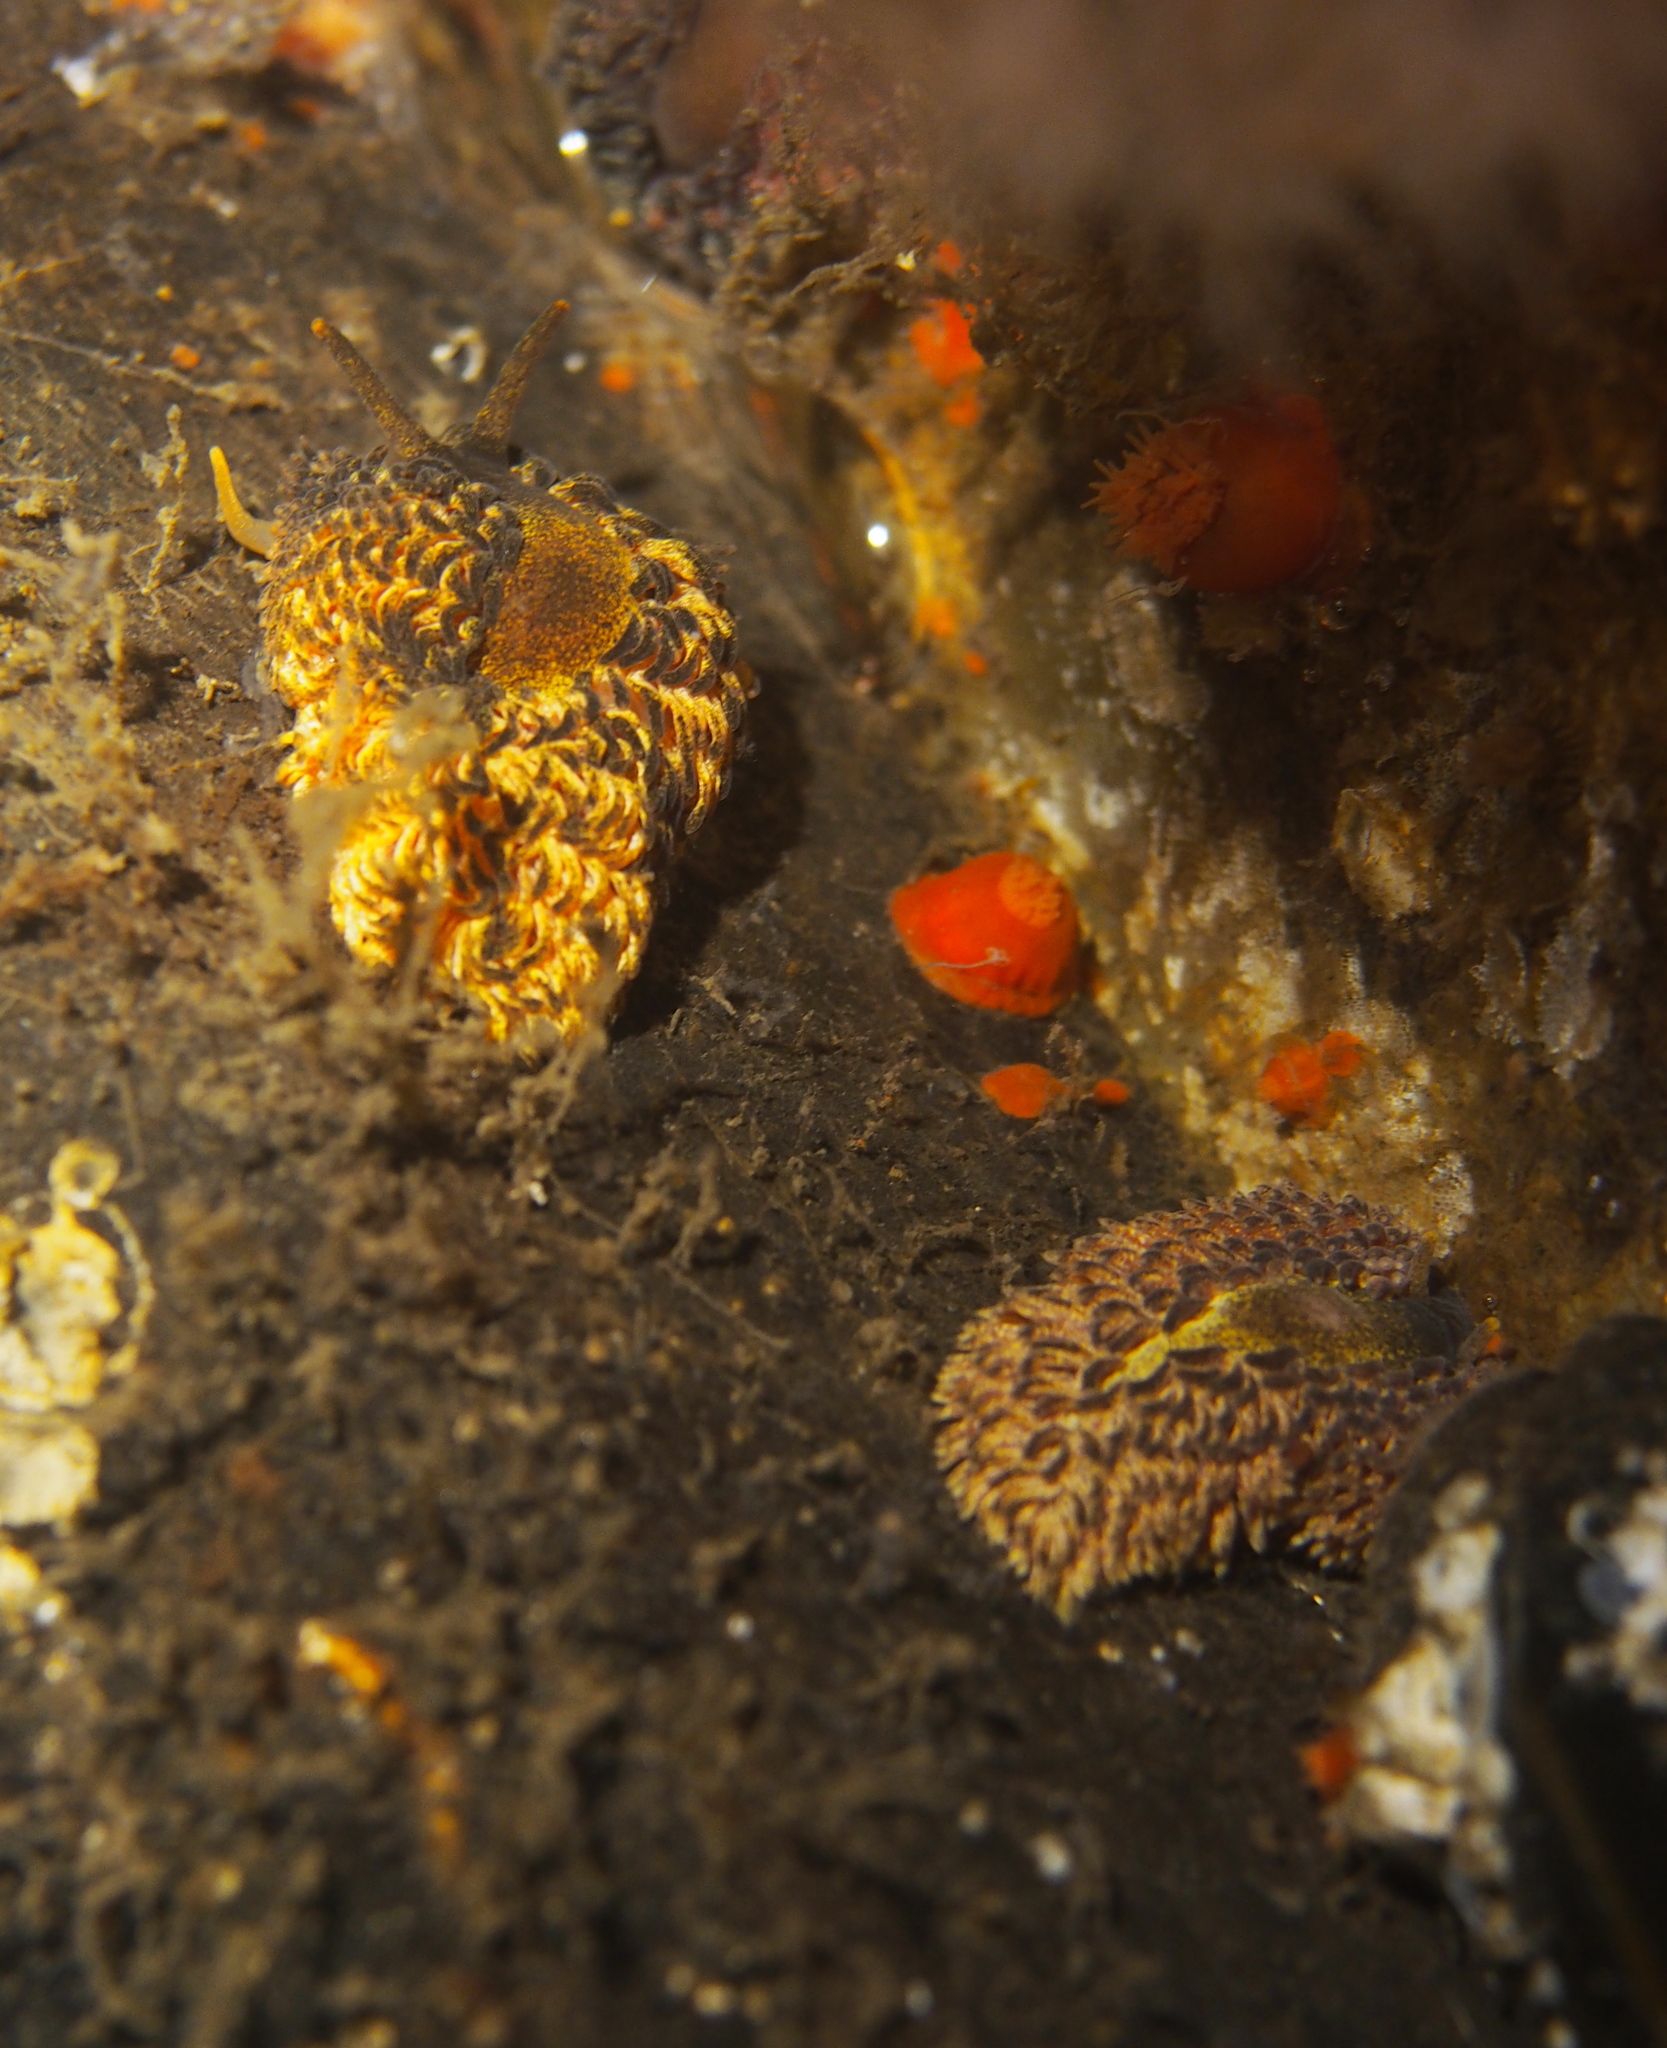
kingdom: Animalia
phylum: Mollusca
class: Gastropoda
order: Nudibranchia
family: Aeolidiidae
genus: Aeolidia
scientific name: Aeolidia papillosa
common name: Common grey sea slug
